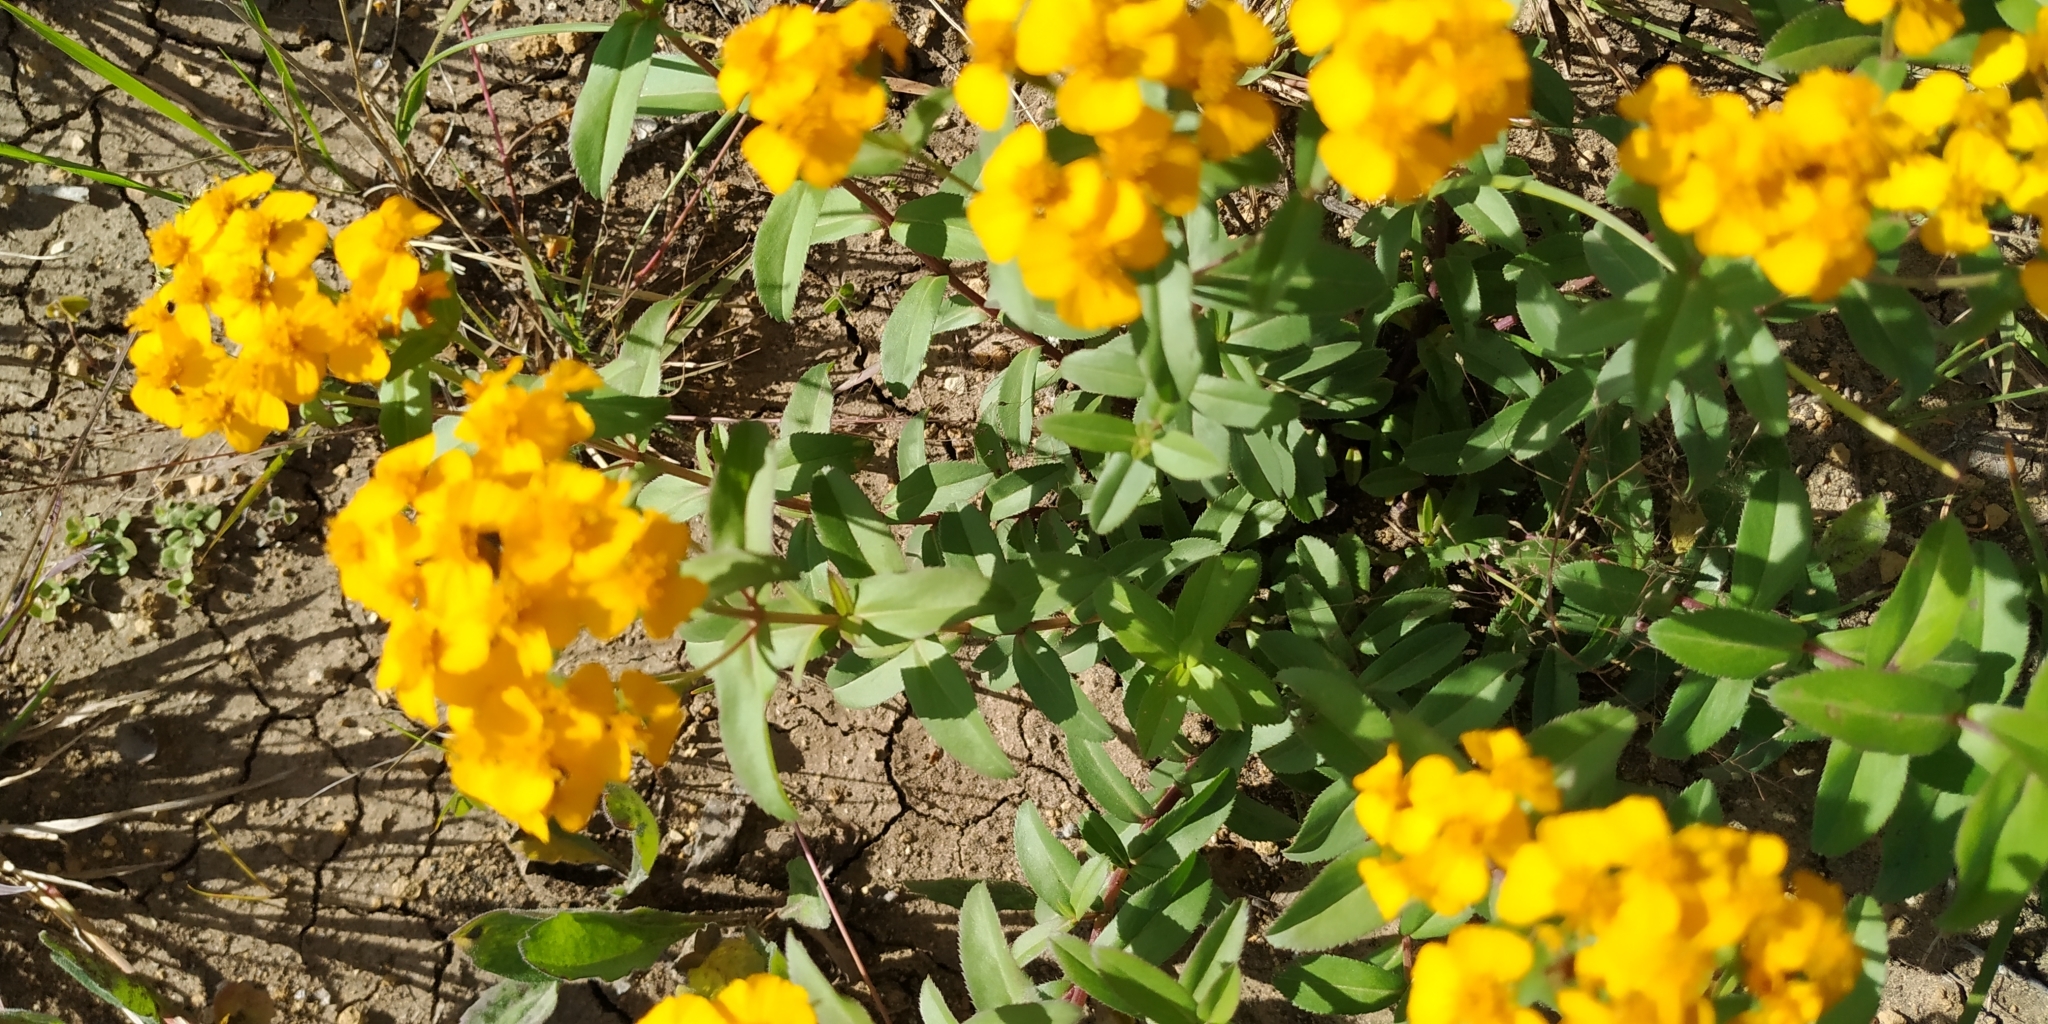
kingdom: Plantae
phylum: Tracheophyta
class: Magnoliopsida
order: Asterales
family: Asteraceae
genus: Tagetes
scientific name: Tagetes lucida
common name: Sweetscented marigold
